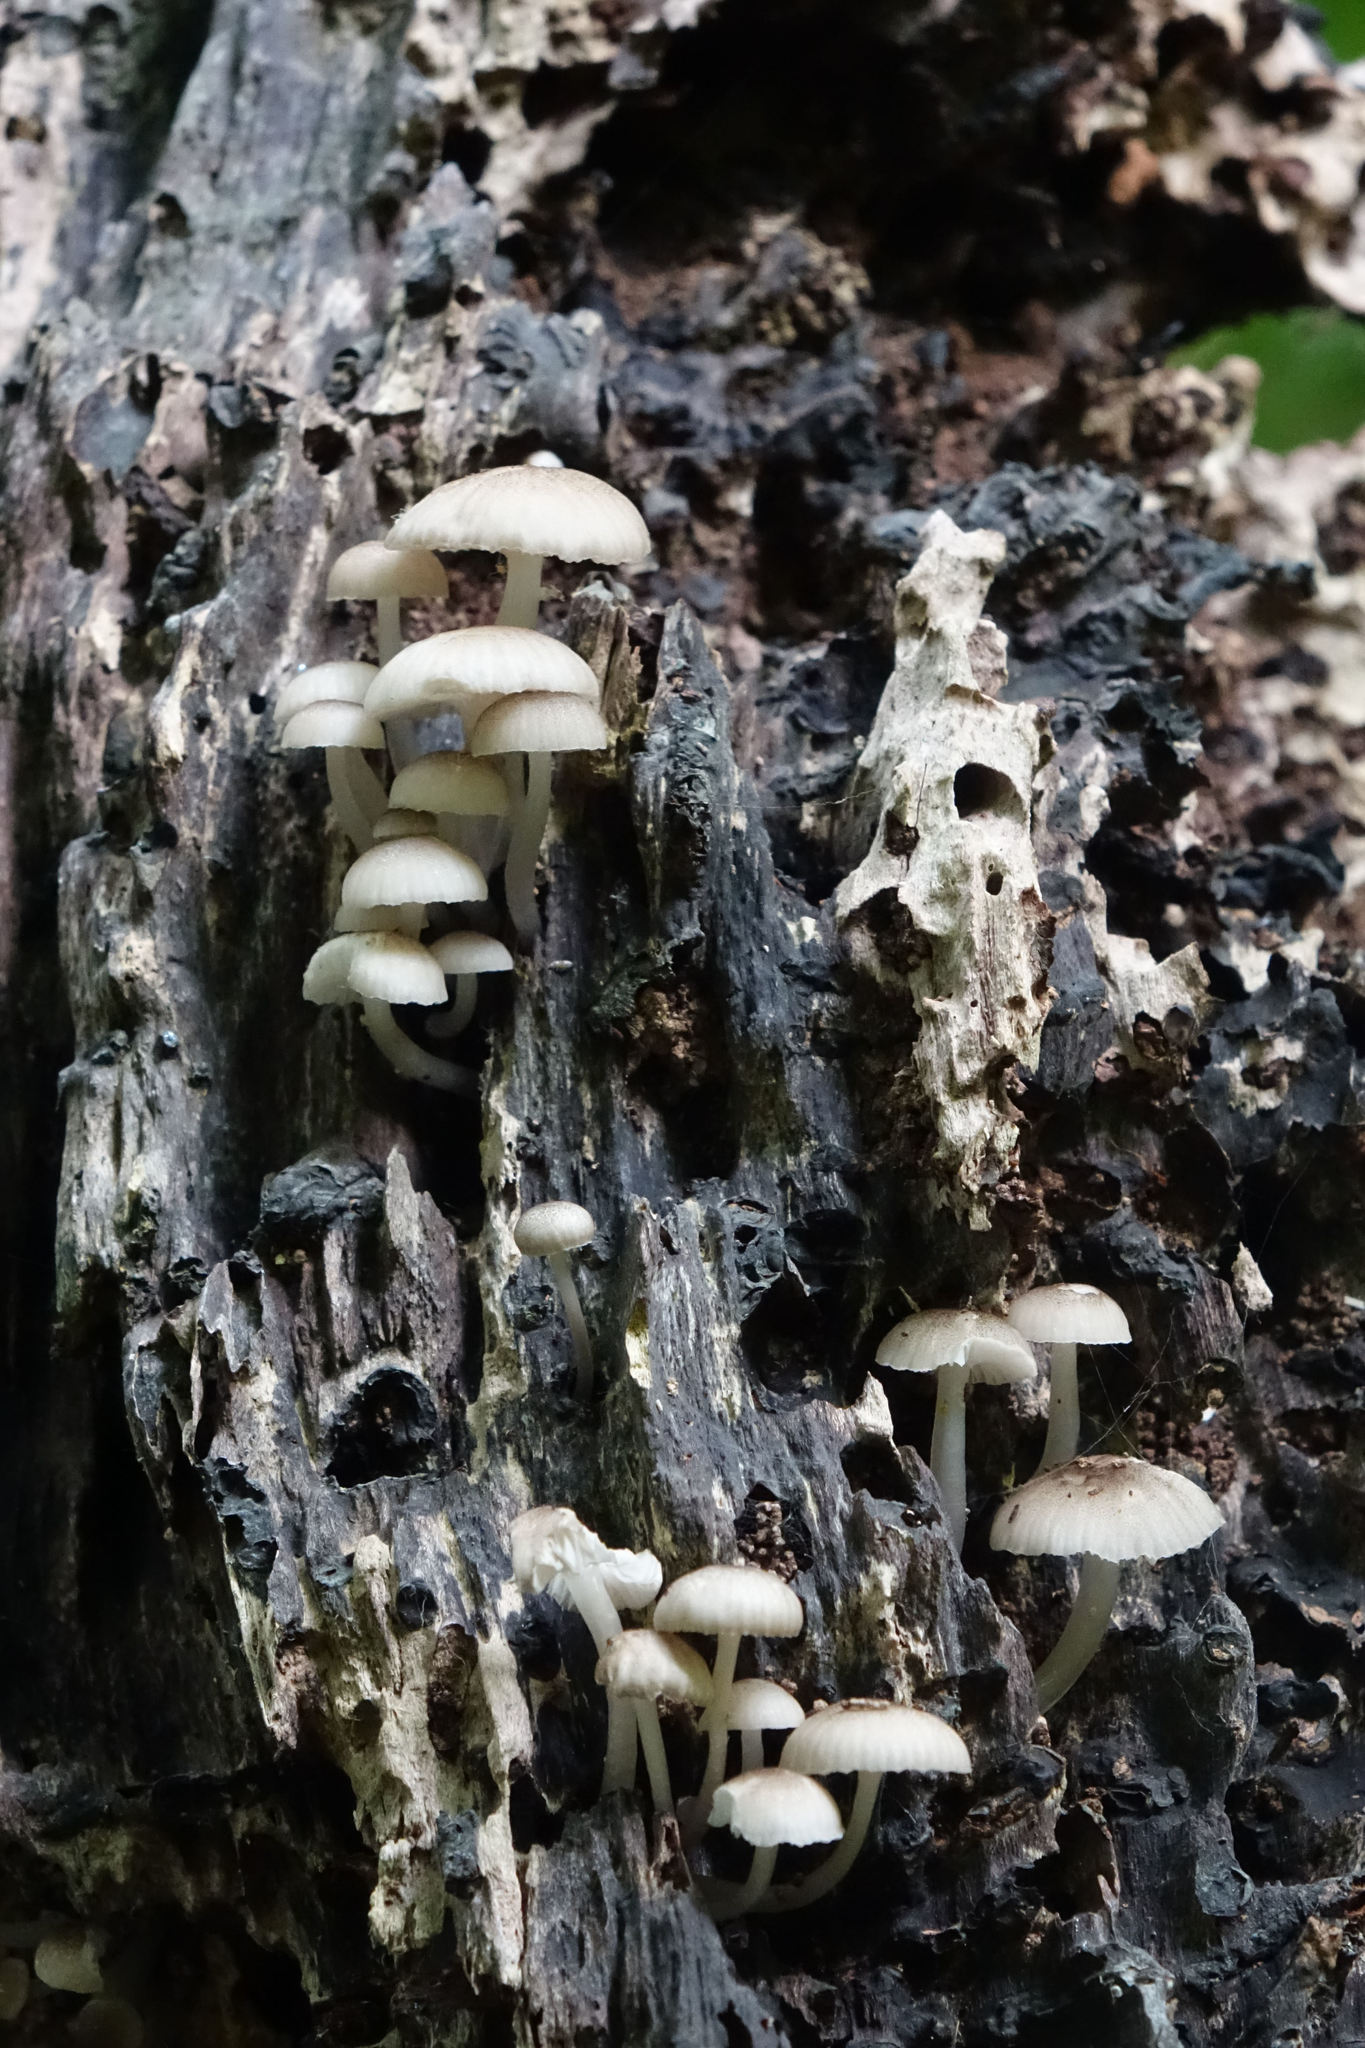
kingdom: Fungi
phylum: Basidiomycota
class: Agaricomycetes
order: Agaricales
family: Mycenaceae
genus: Roridomyces
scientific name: Roridomyces austrororidus
